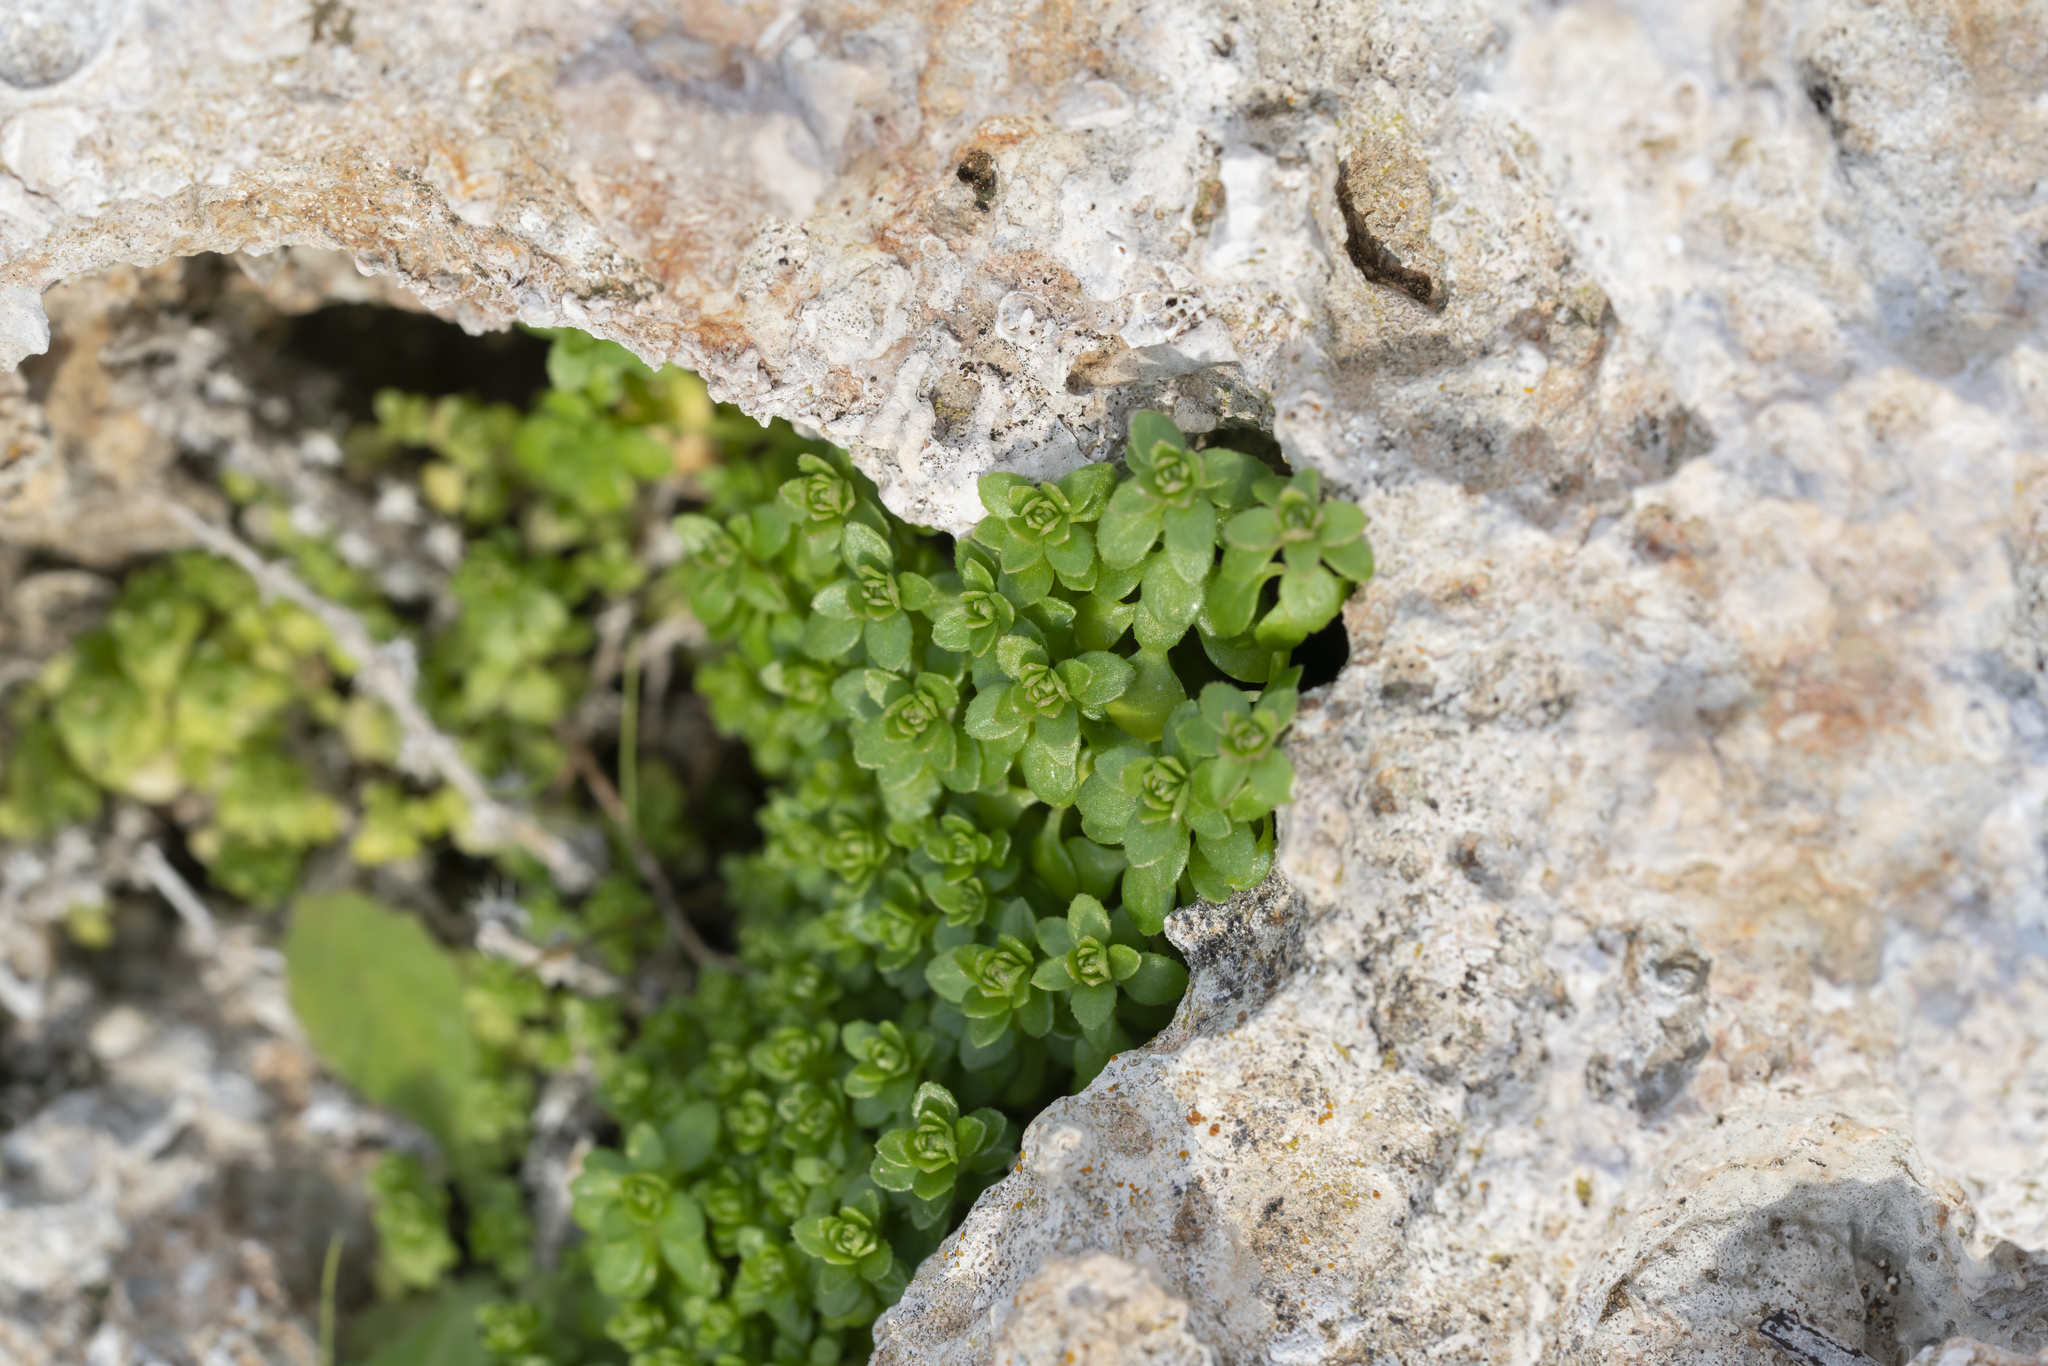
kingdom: Plantae
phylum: Tracheophyta
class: Magnoliopsida
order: Gentianales
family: Rubiaceae
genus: Valantia
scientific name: Valantia
